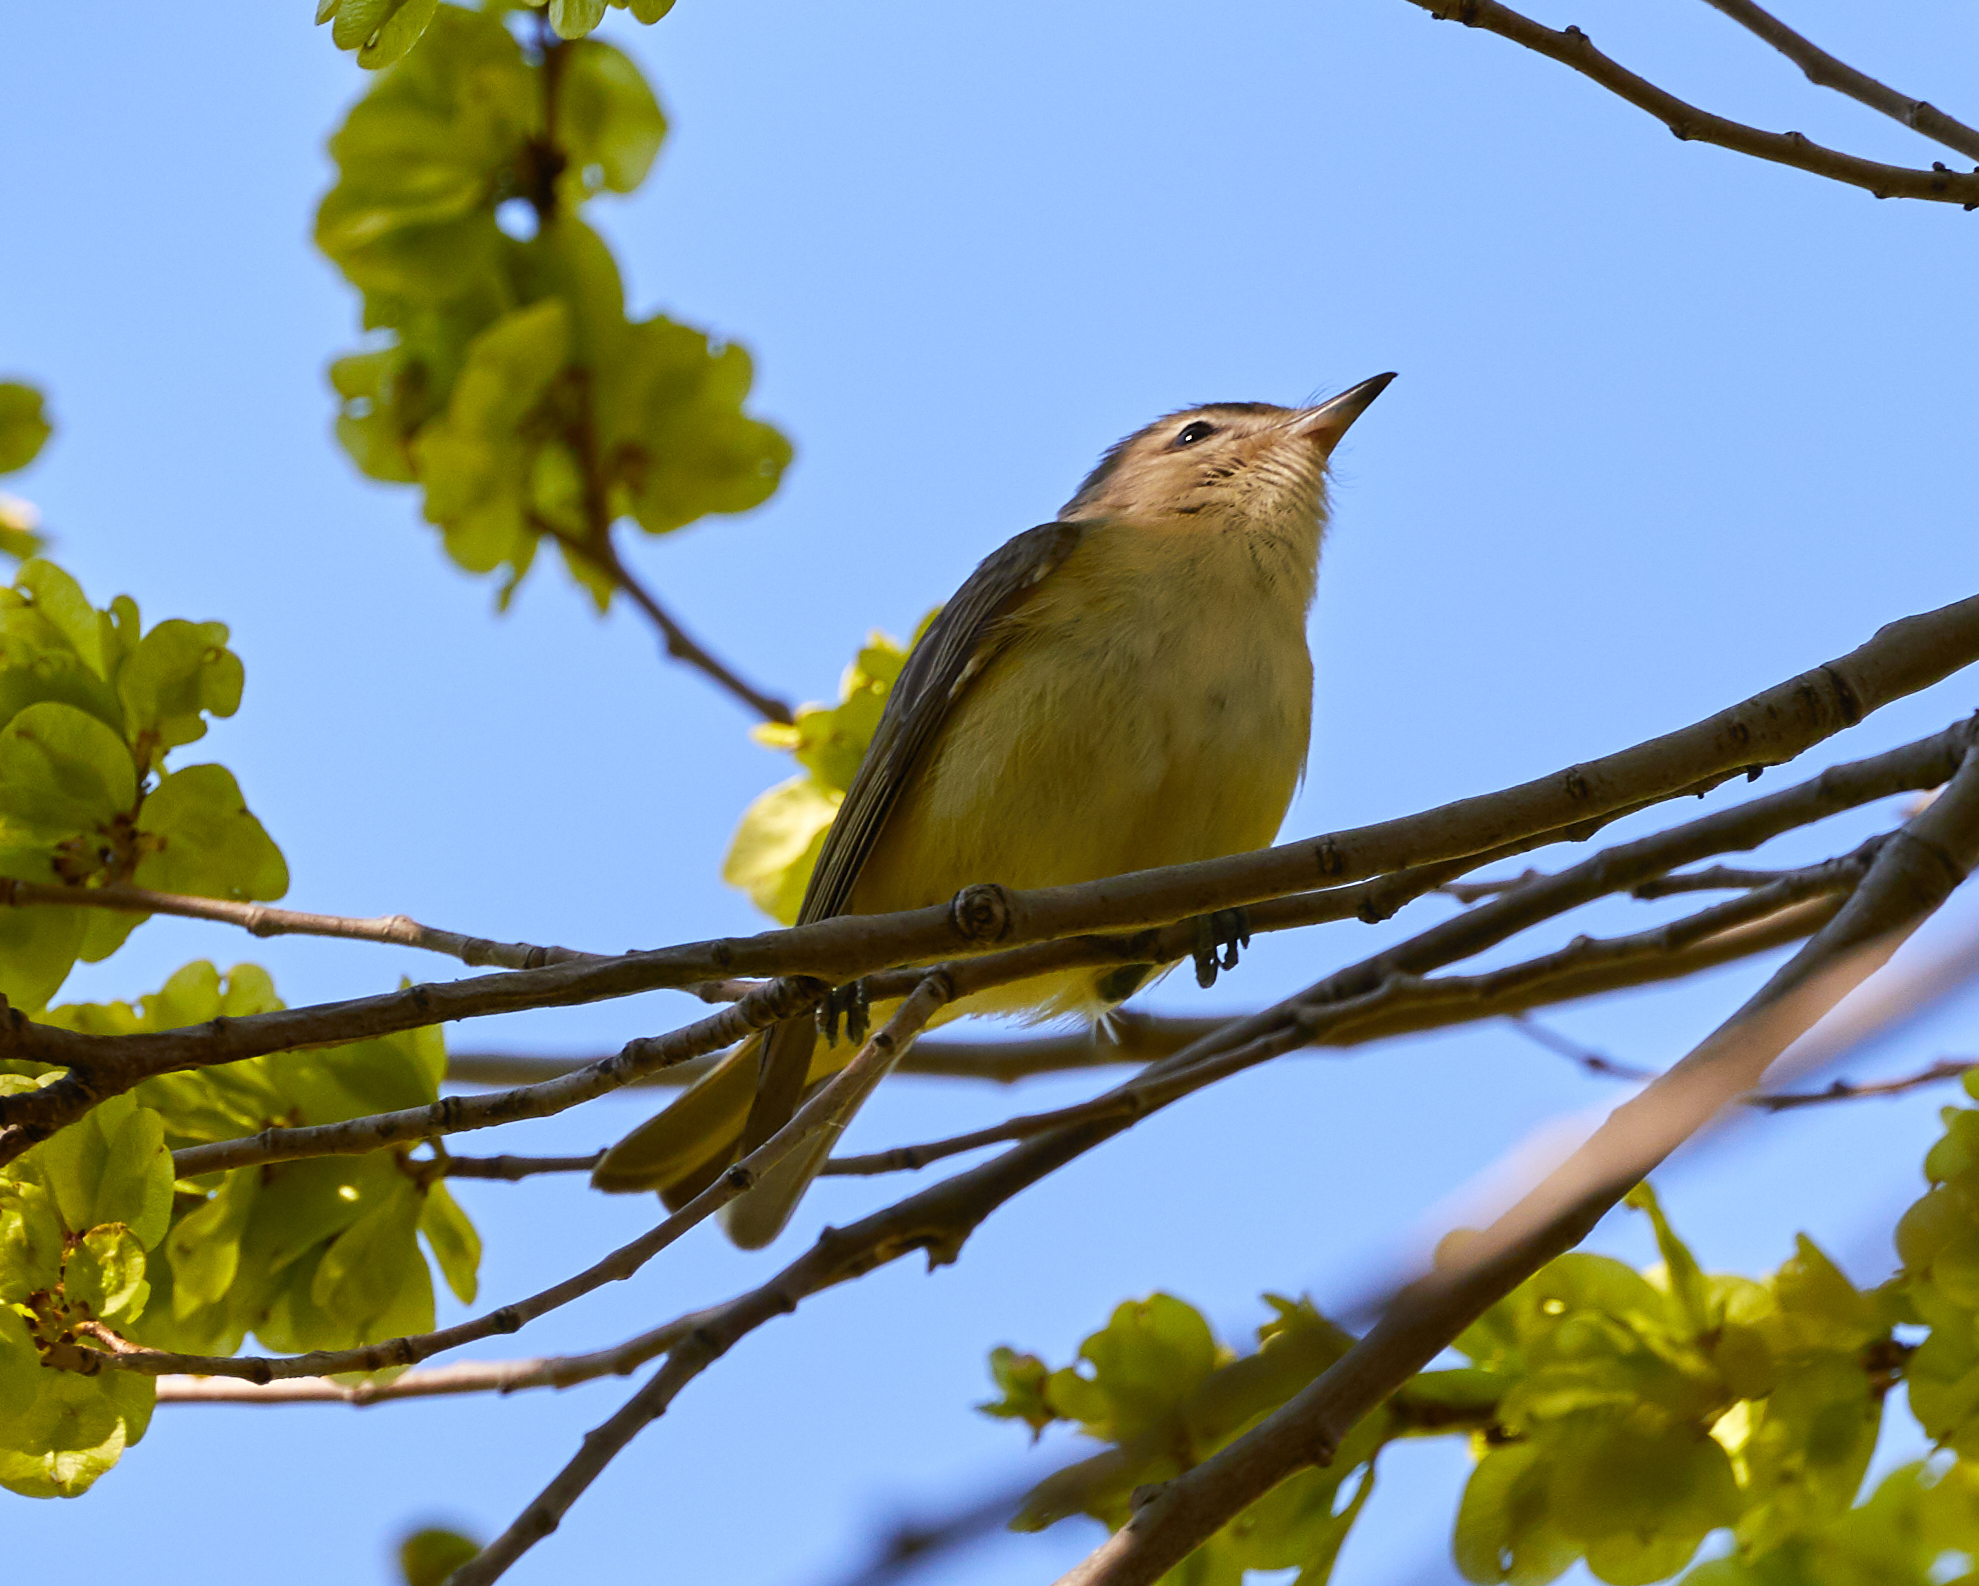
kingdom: Animalia
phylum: Chordata
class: Aves
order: Passeriformes
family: Vireonidae
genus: Vireo
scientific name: Vireo gilvus
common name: Warbling vireo
